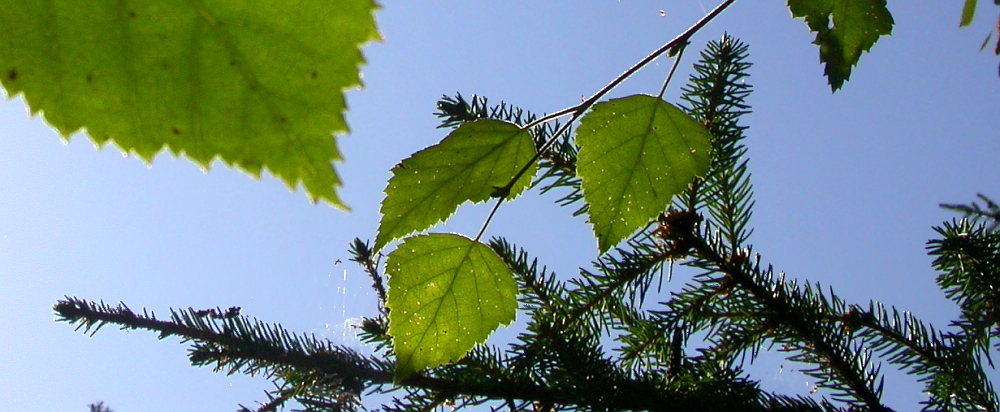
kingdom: Plantae
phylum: Tracheophyta
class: Pinopsida
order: Pinales
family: Pinaceae
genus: Picea
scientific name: Picea abies
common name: Norway spruce
